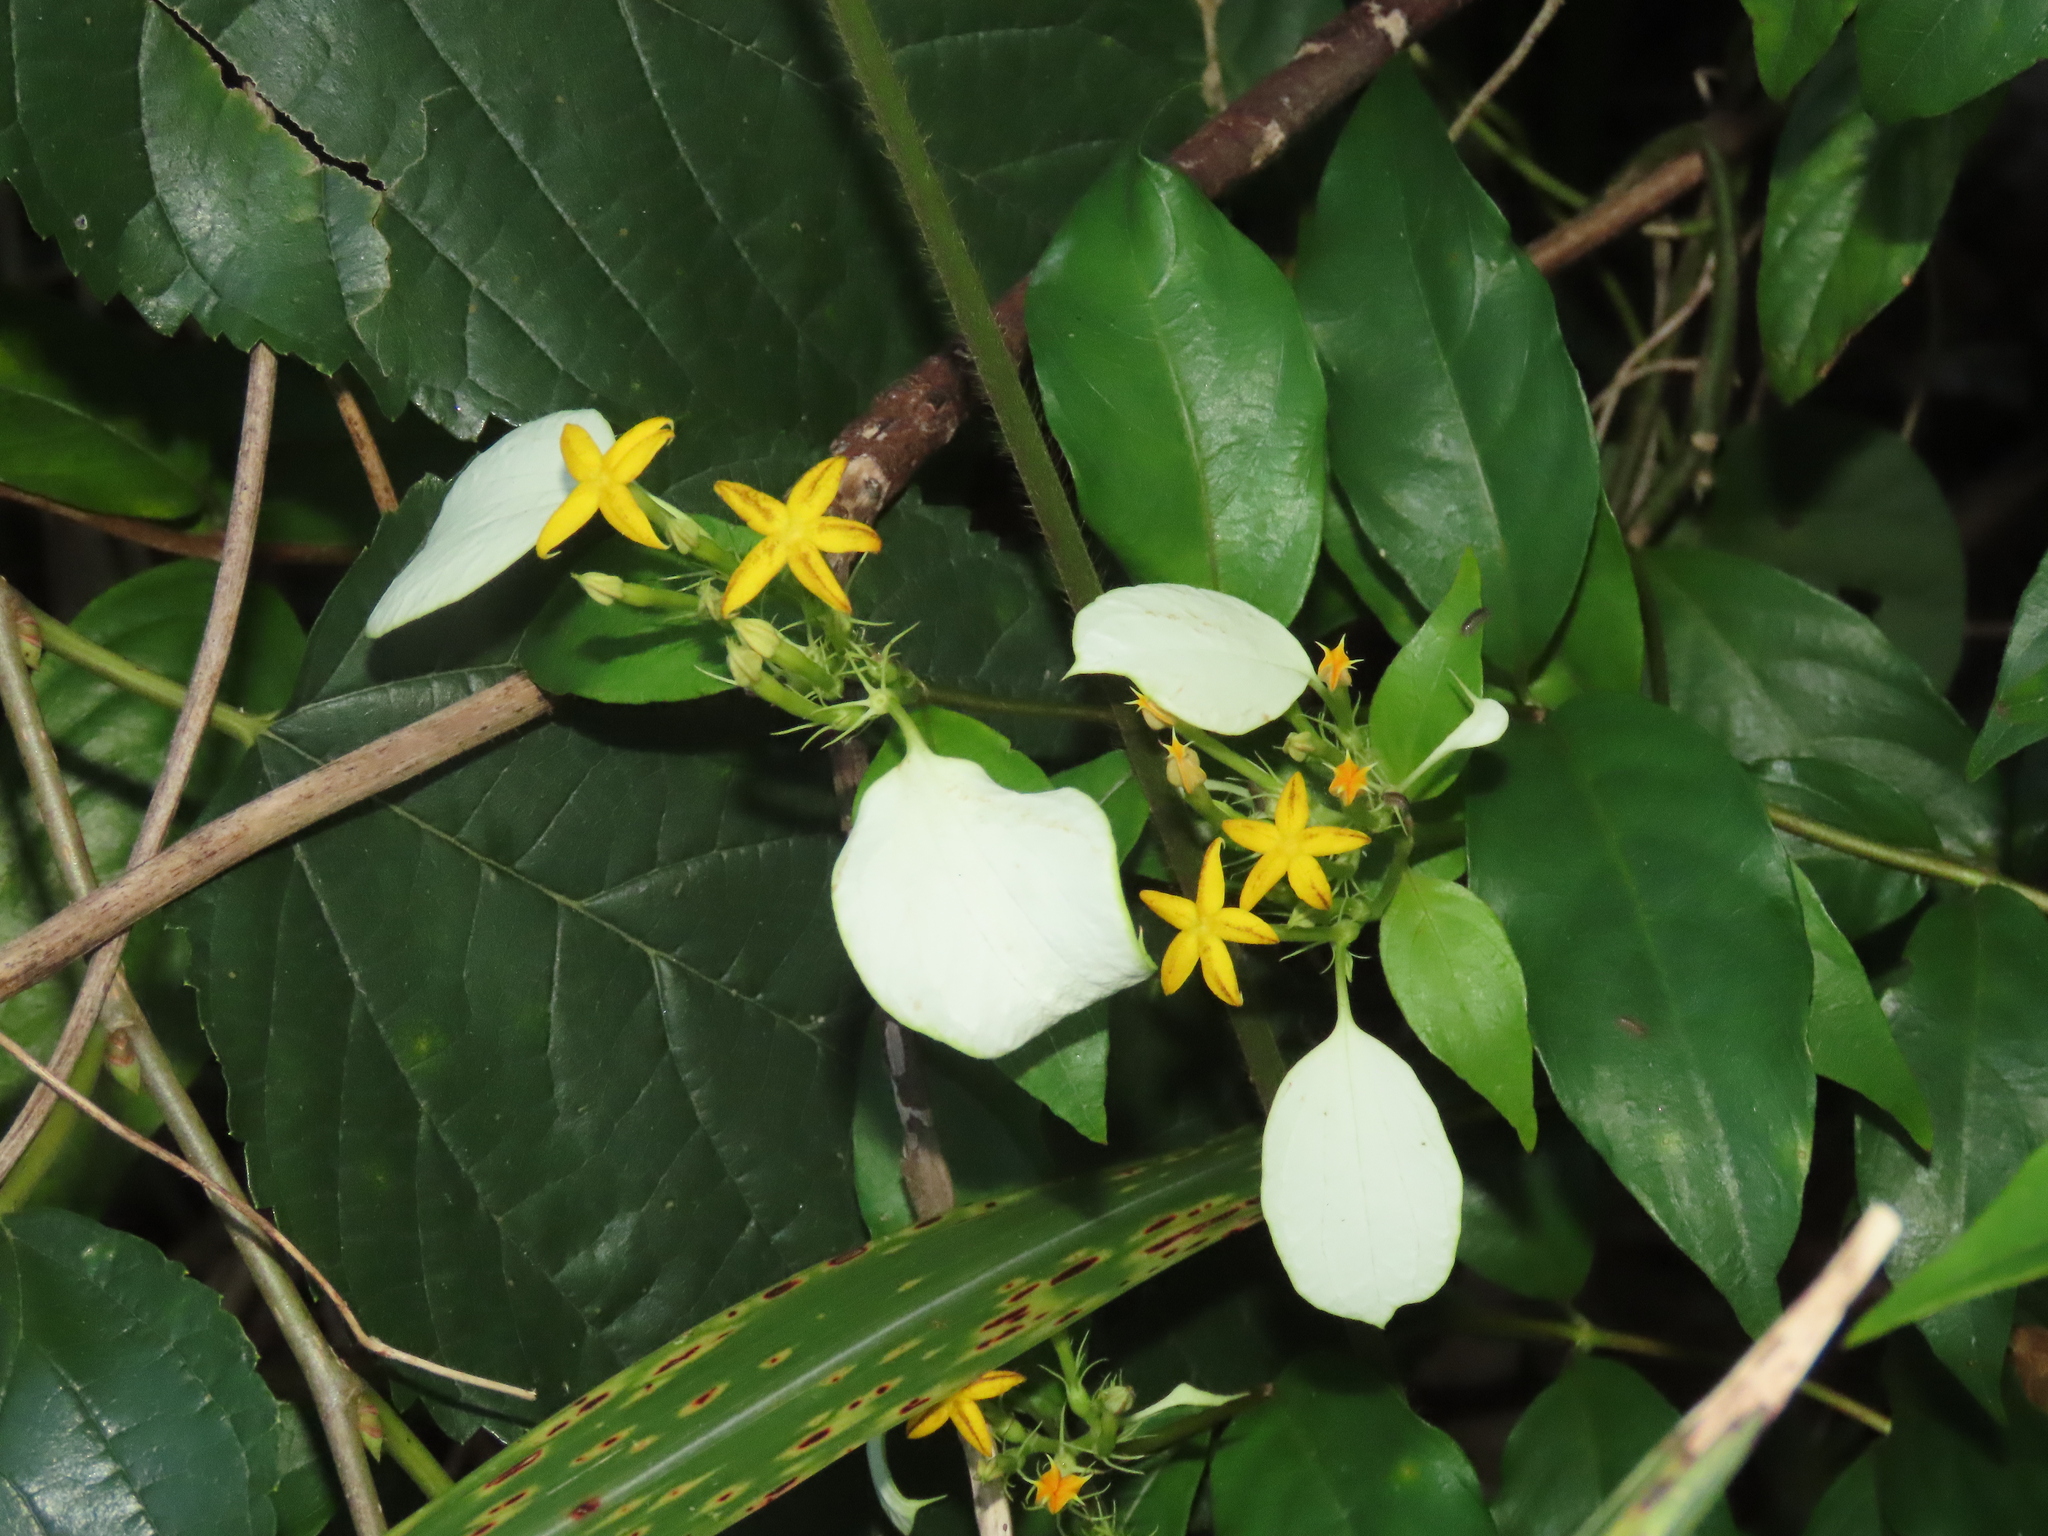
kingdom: Plantae
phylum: Tracheophyta
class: Magnoliopsida
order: Gentianales
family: Rubiaceae
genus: Mussaenda
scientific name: Mussaenda formosana
